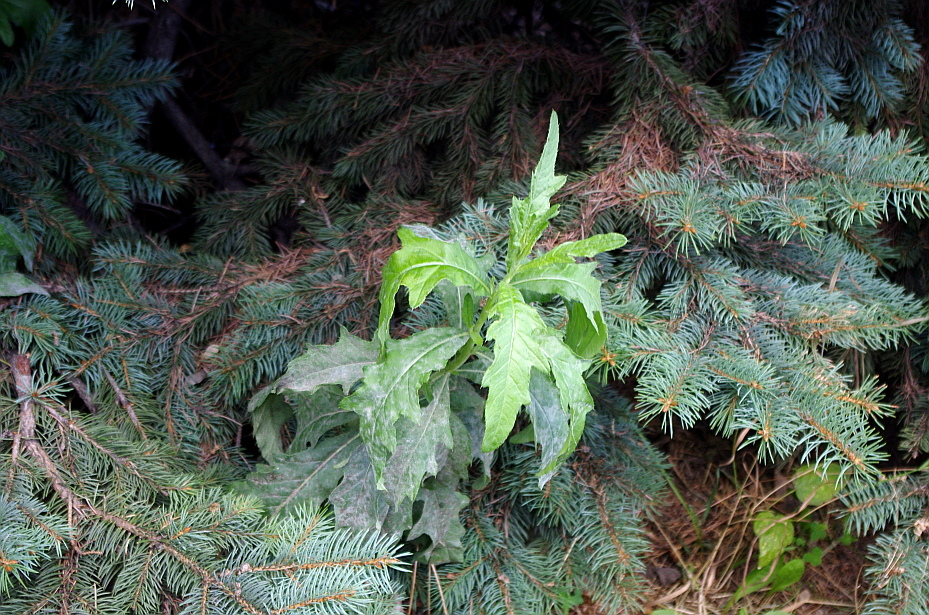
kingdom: Plantae
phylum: Tracheophyta
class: Magnoliopsida
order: Asterales
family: Asteraceae
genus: Cirsium
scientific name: Cirsium arvense
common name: Creeping thistle
